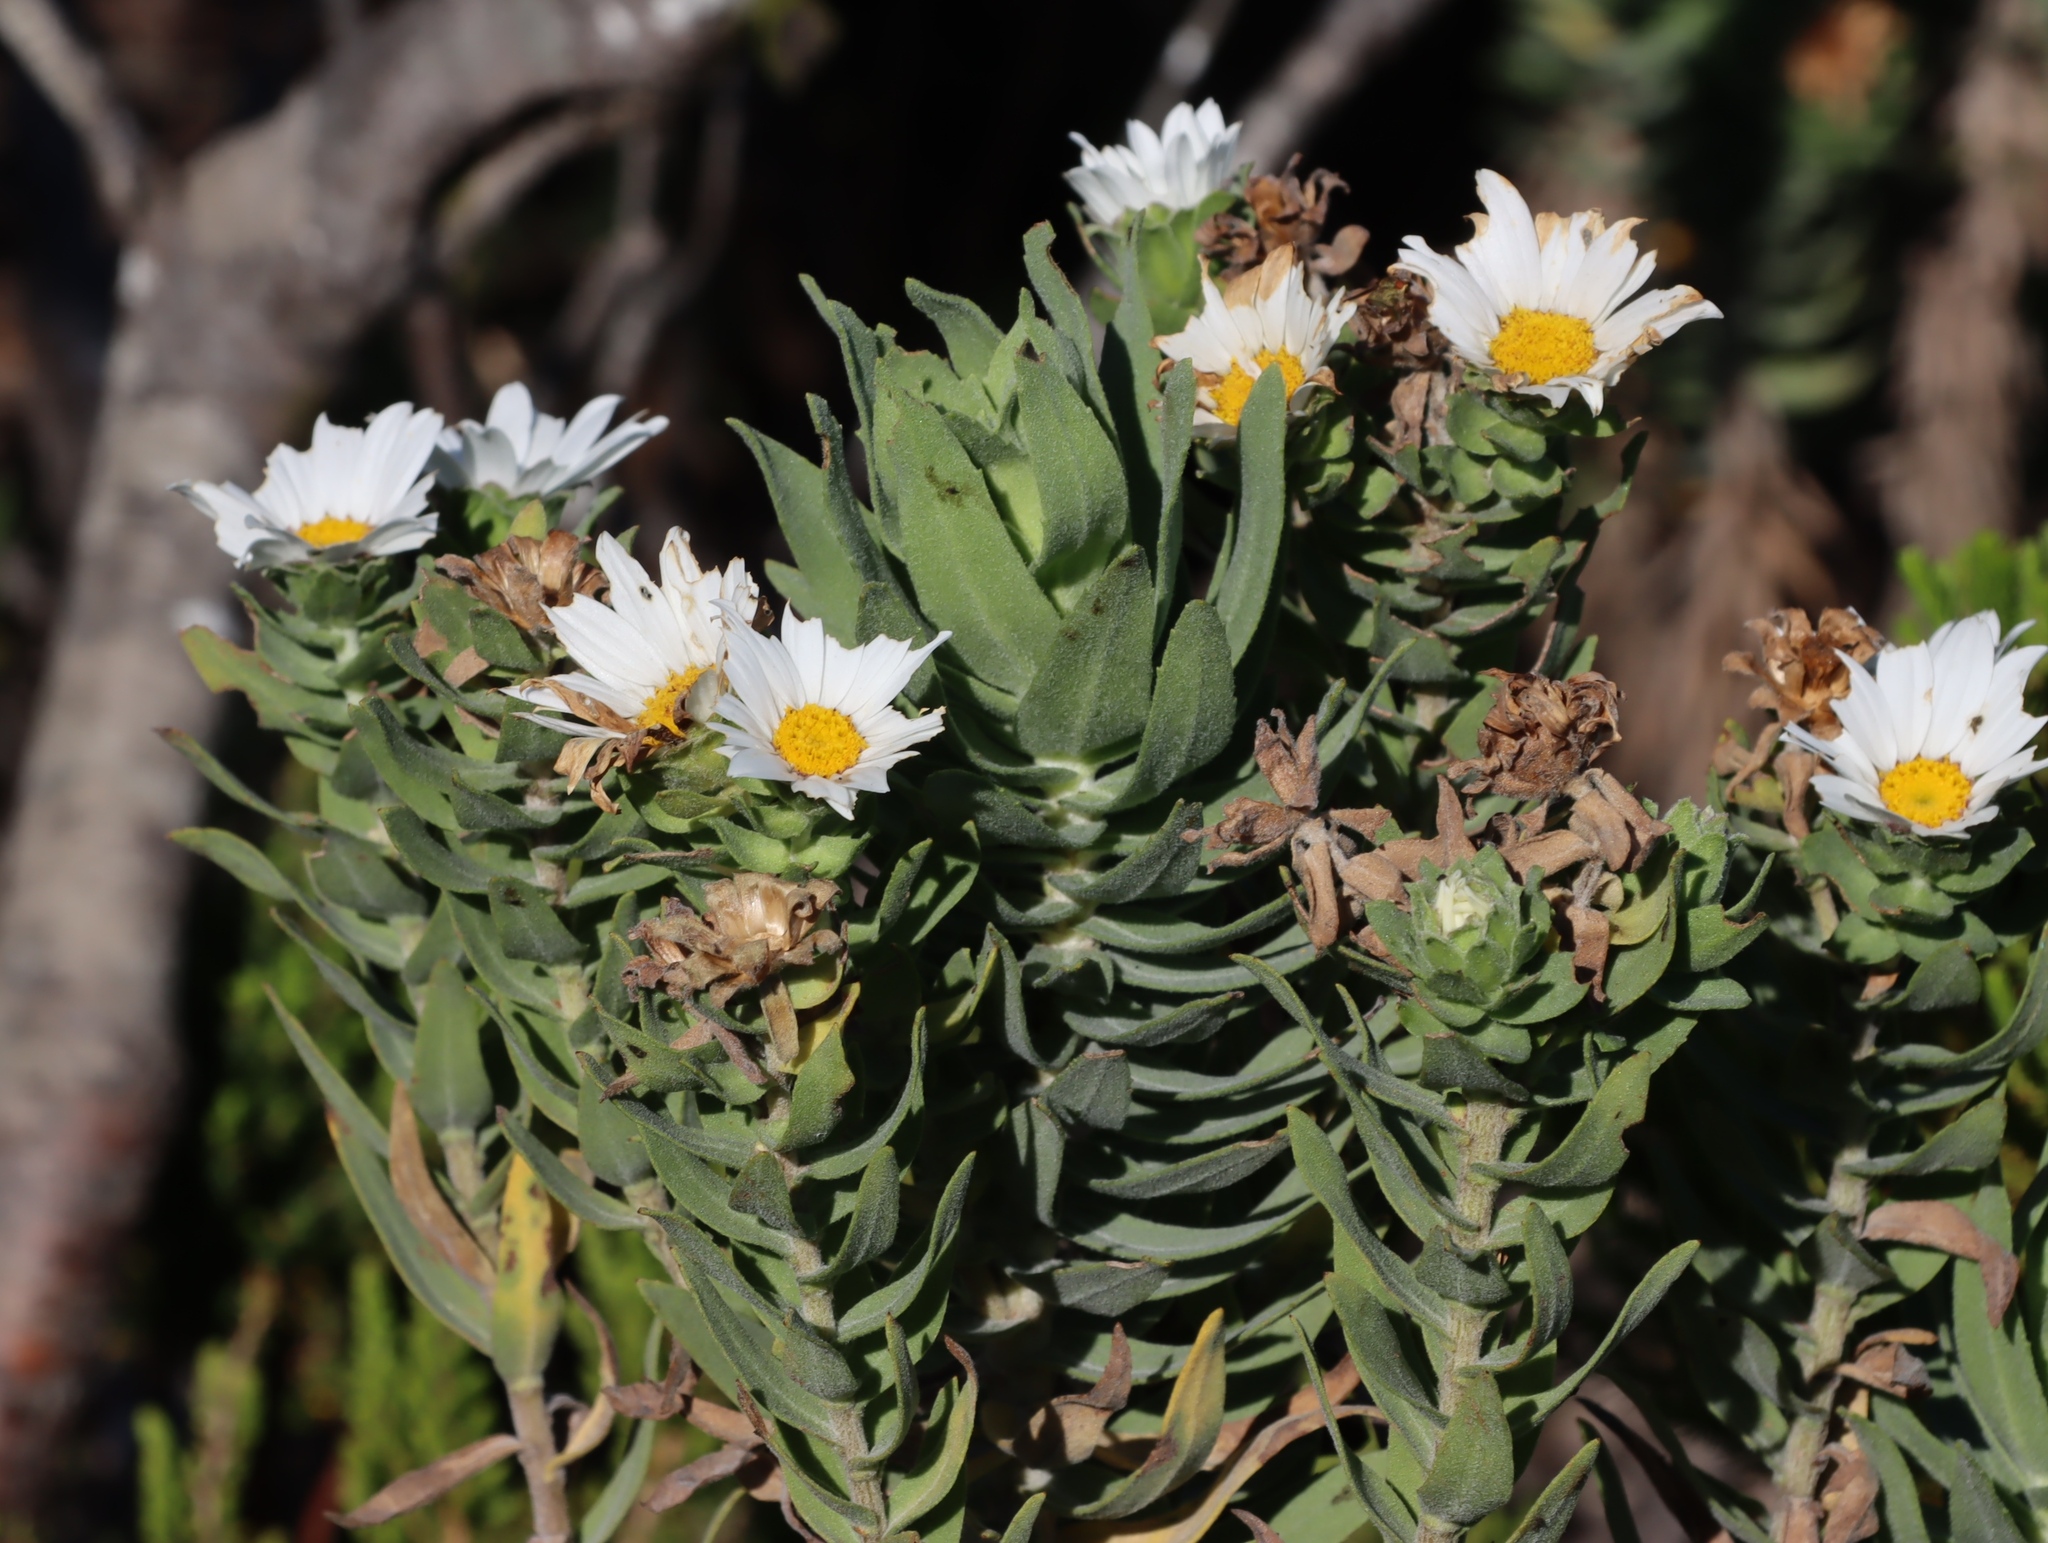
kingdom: Plantae
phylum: Tracheophyta
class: Magnoliopsida
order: Asterales
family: Asteraceae
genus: Osmitopsis
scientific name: Osmitopsis asteriscoides
